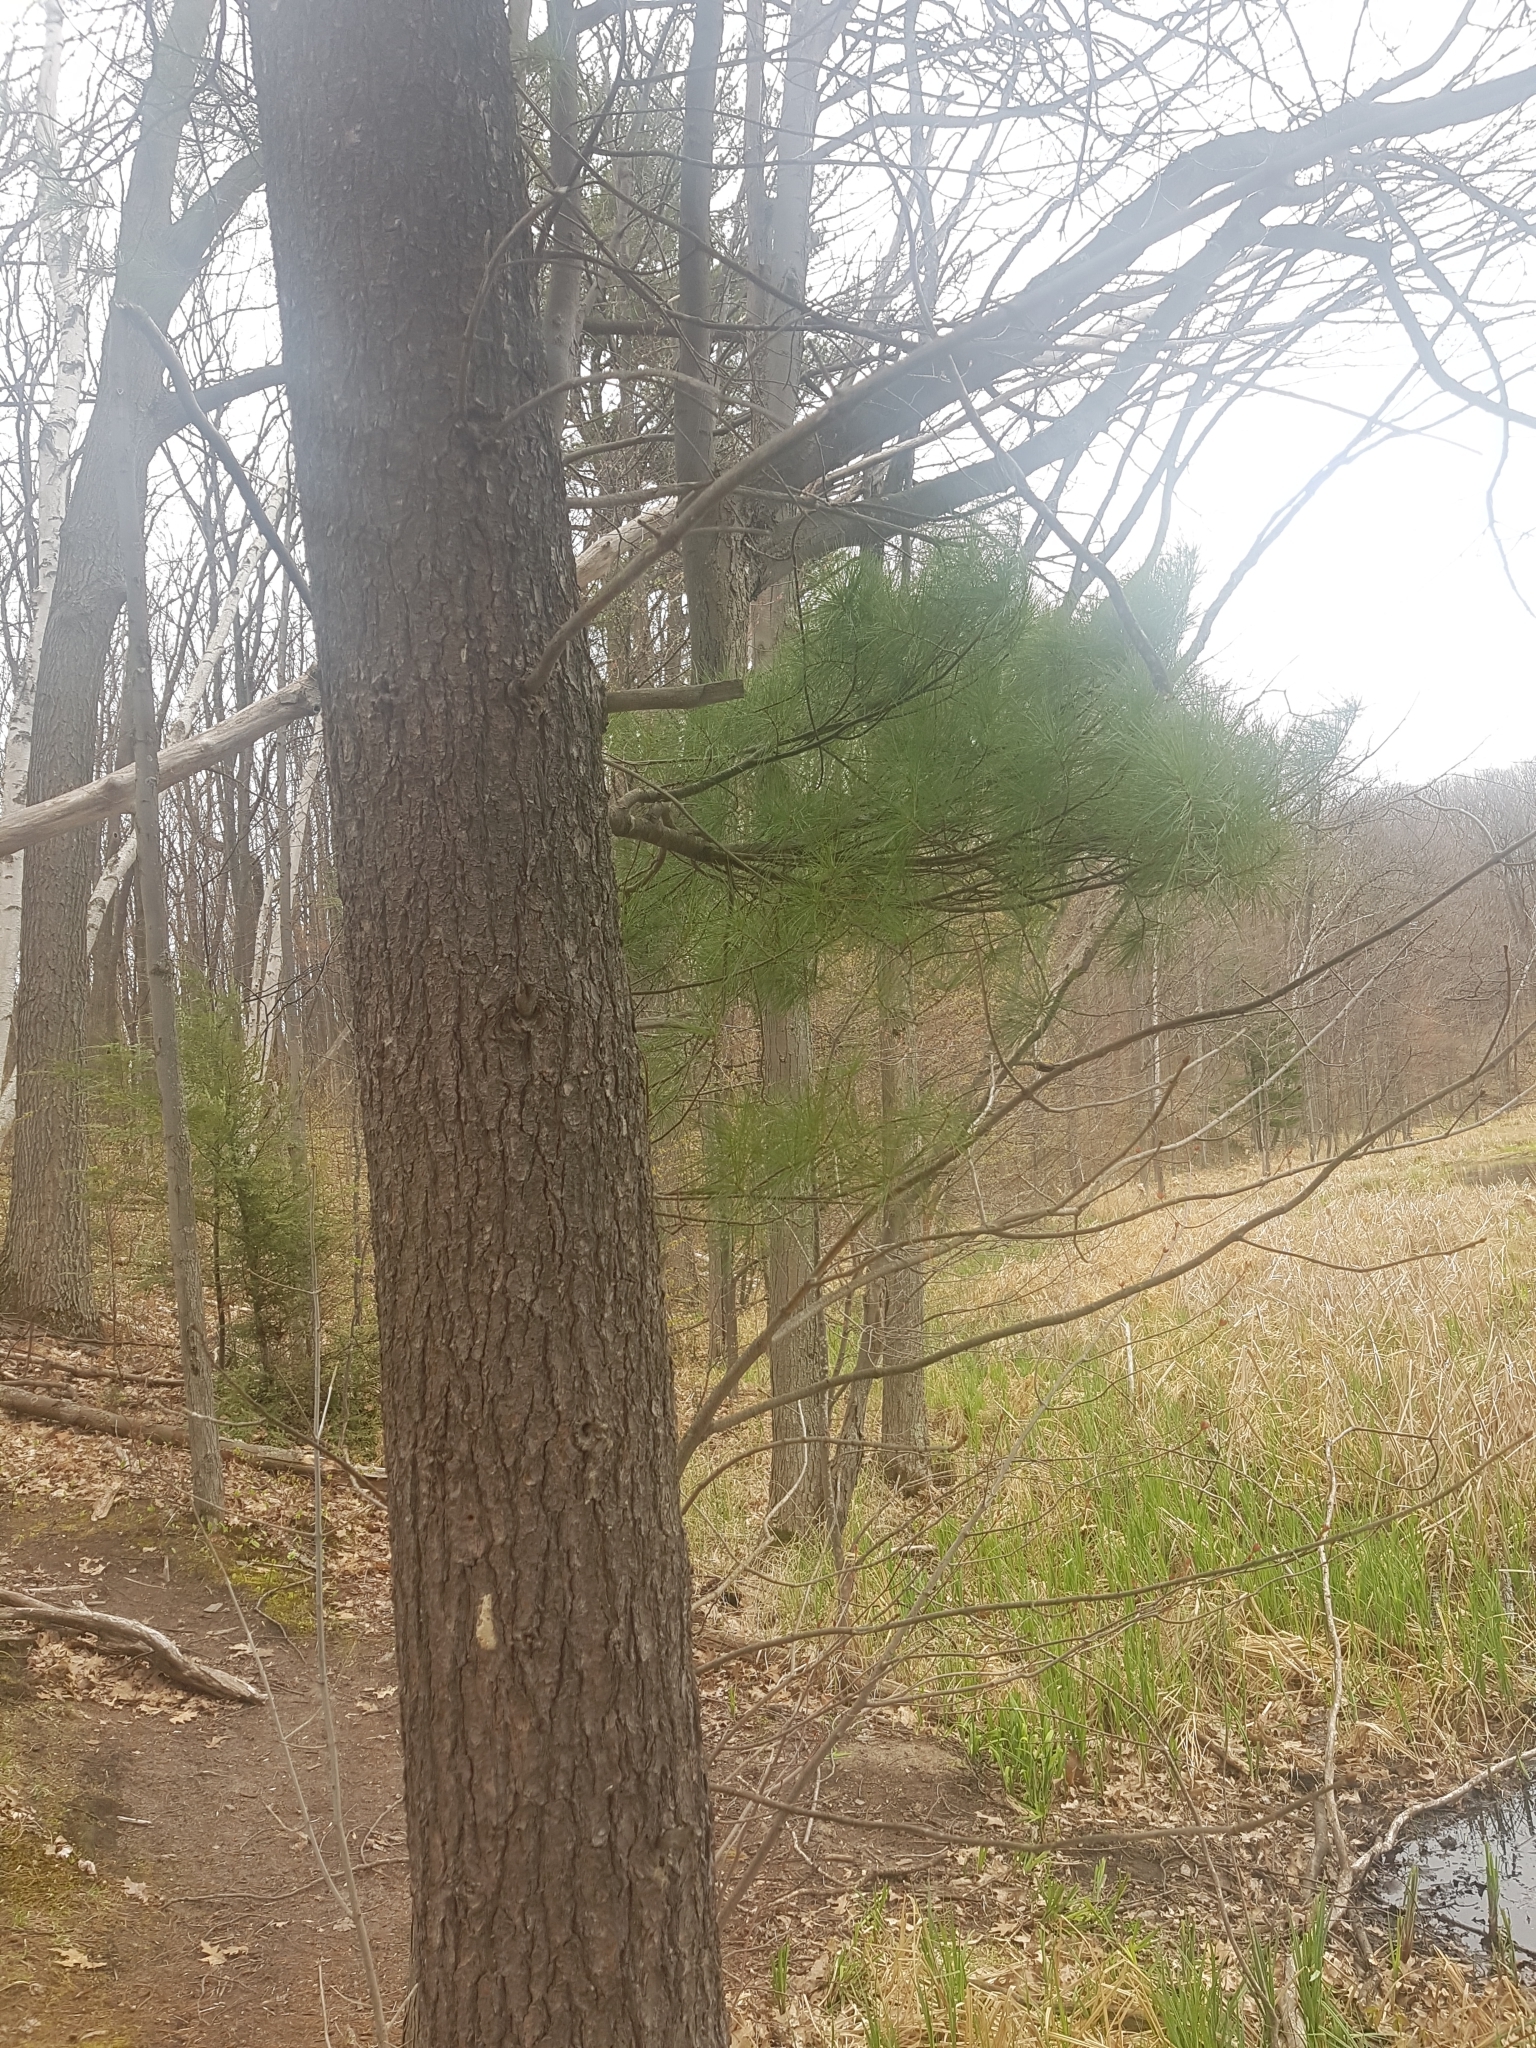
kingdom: Plantae
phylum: Tracheophyta
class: Pinopsida
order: Pinales
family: Pinaceae
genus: Pinus
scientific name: Pinus strobus
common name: Weymouth pine
